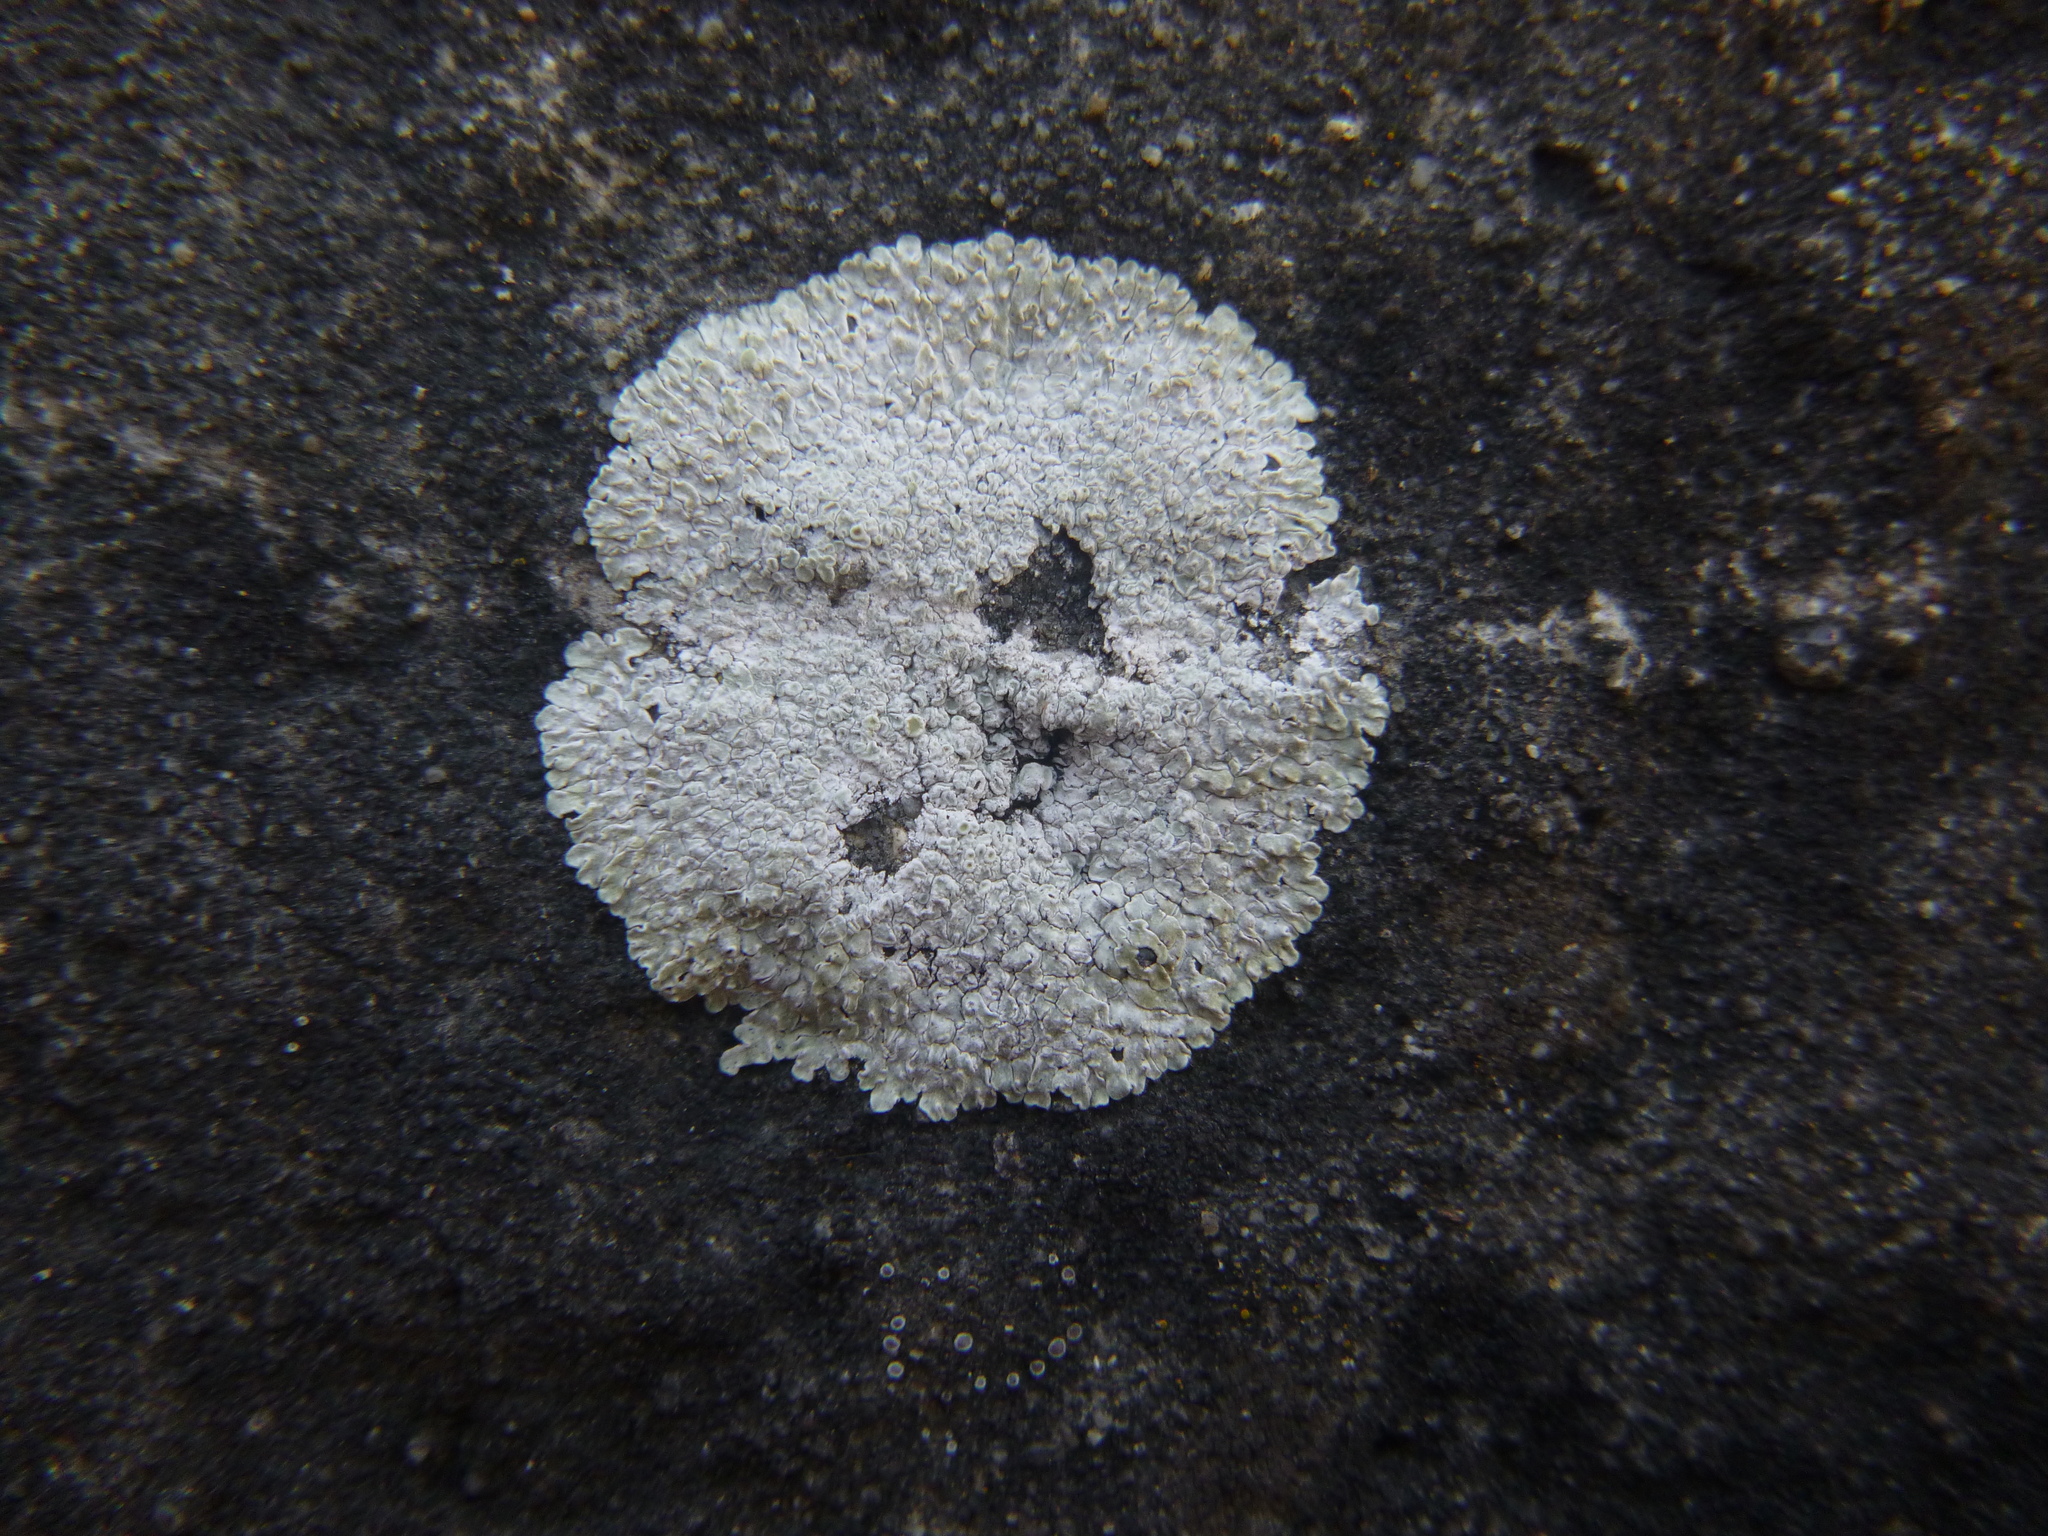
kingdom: Fungi
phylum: Ascomycota
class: Lecanoromycetes
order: Lecanorales
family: Lecanoraceae
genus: Protoparmeliopsis
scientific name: Protoparmeliopsis muralis
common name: Stonewall rim lichen
